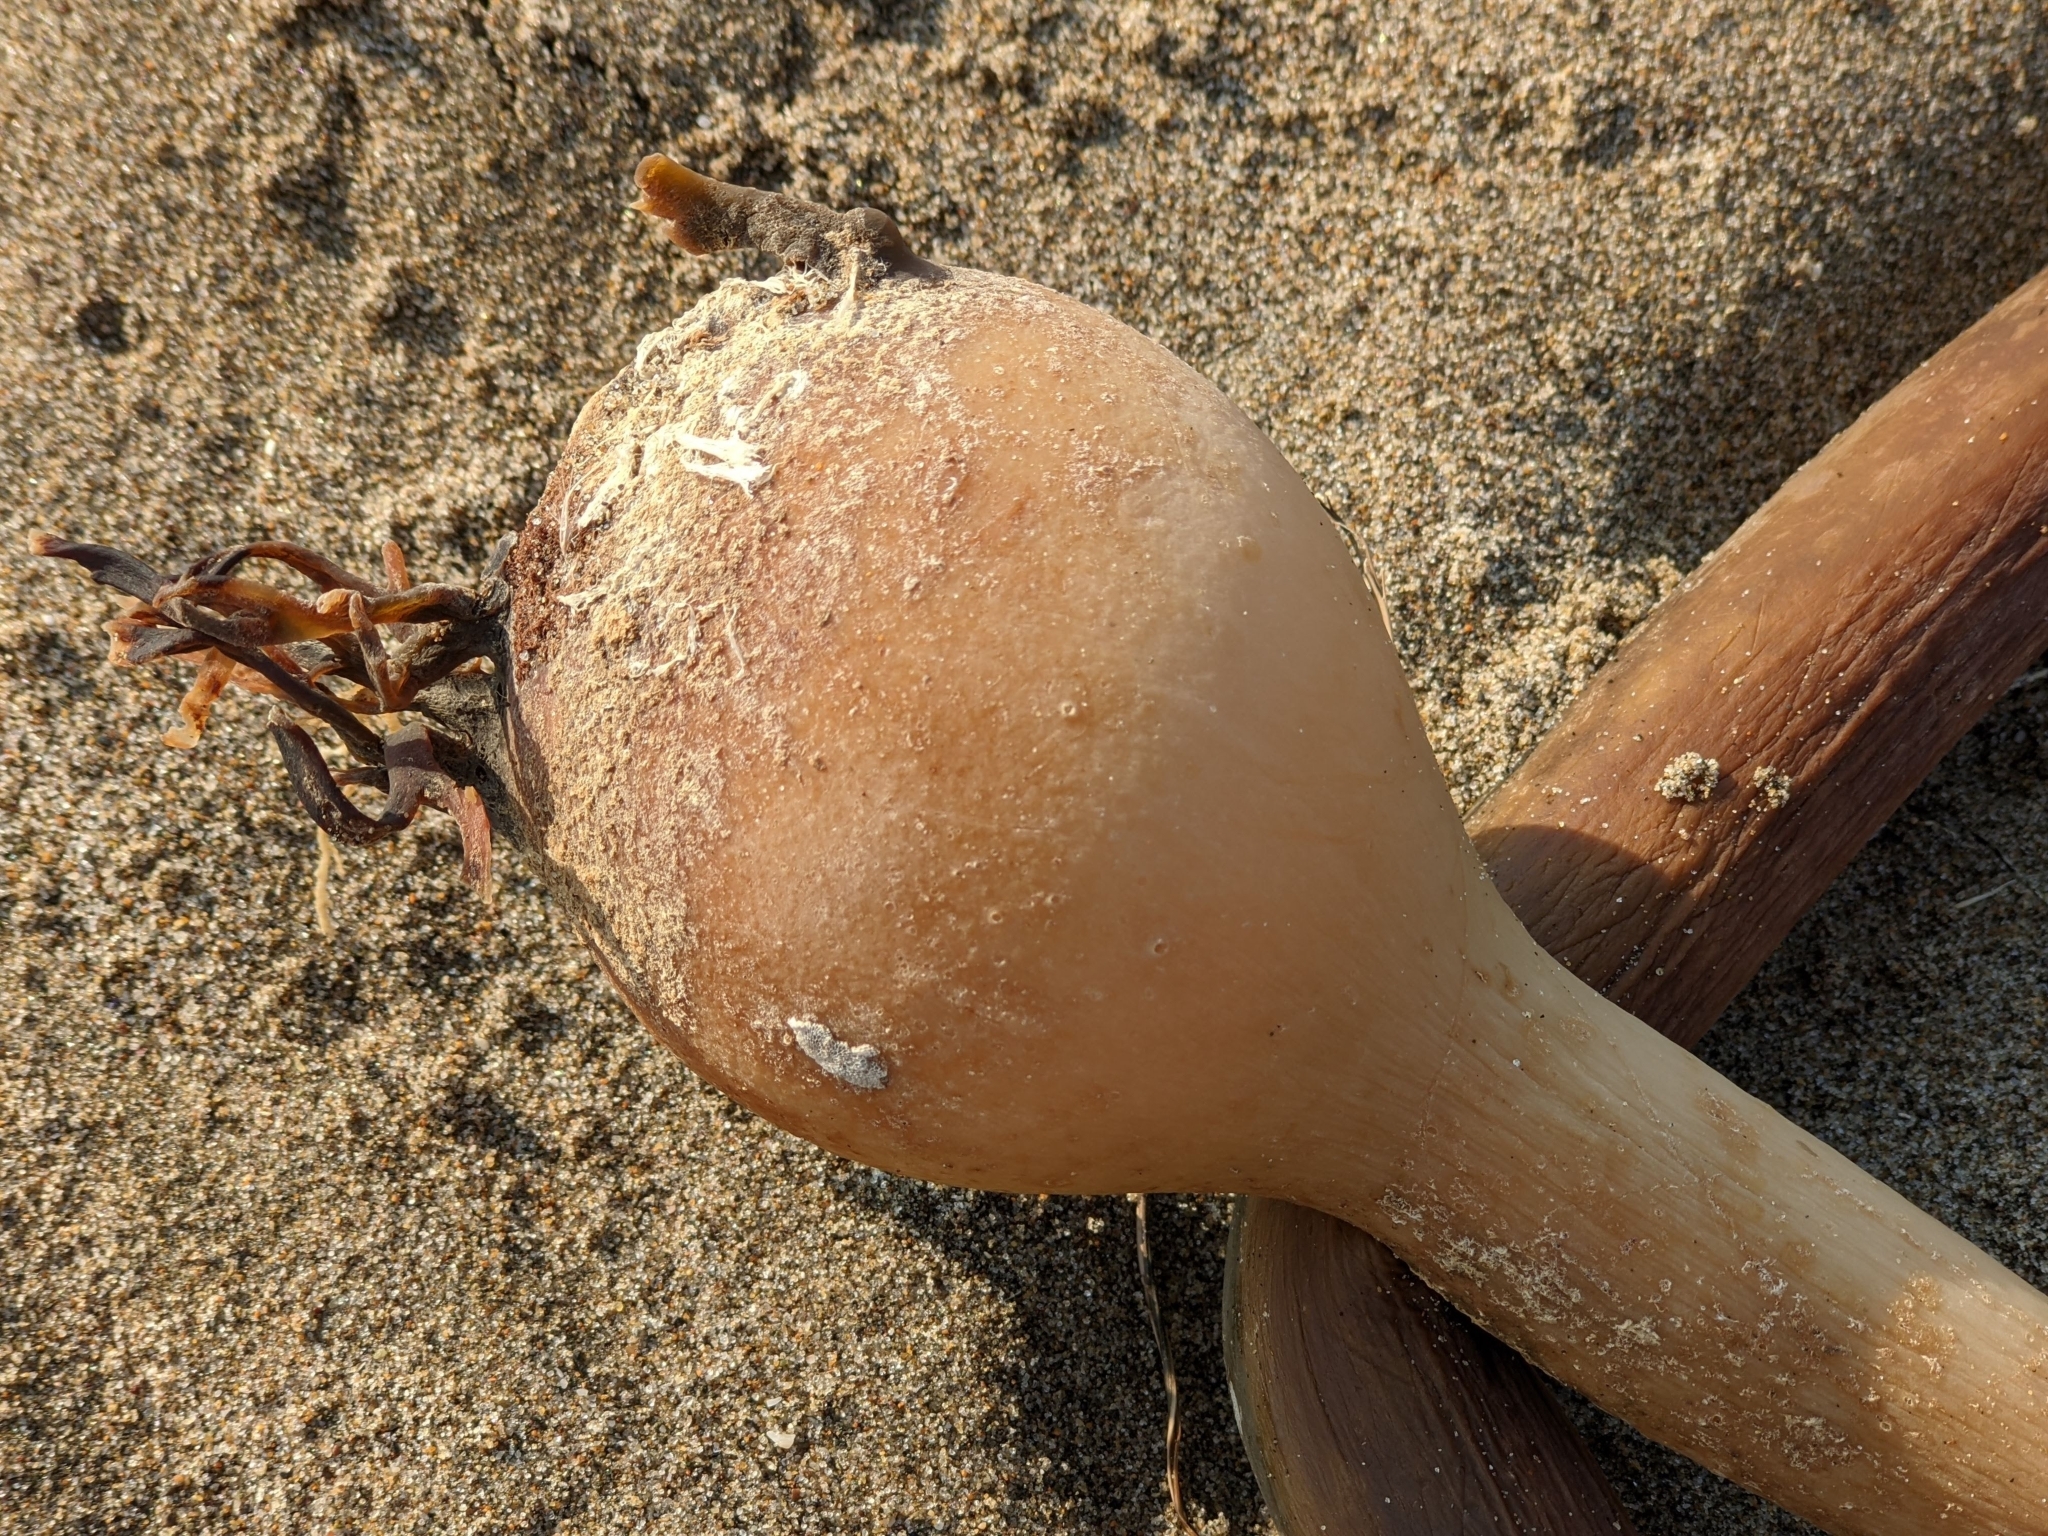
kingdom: Chromista
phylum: Ochrophyta
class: Phaeophyceae
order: Laminariales
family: Laminariaceae
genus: Nereocystis
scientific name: Nereocystis luetkeana
